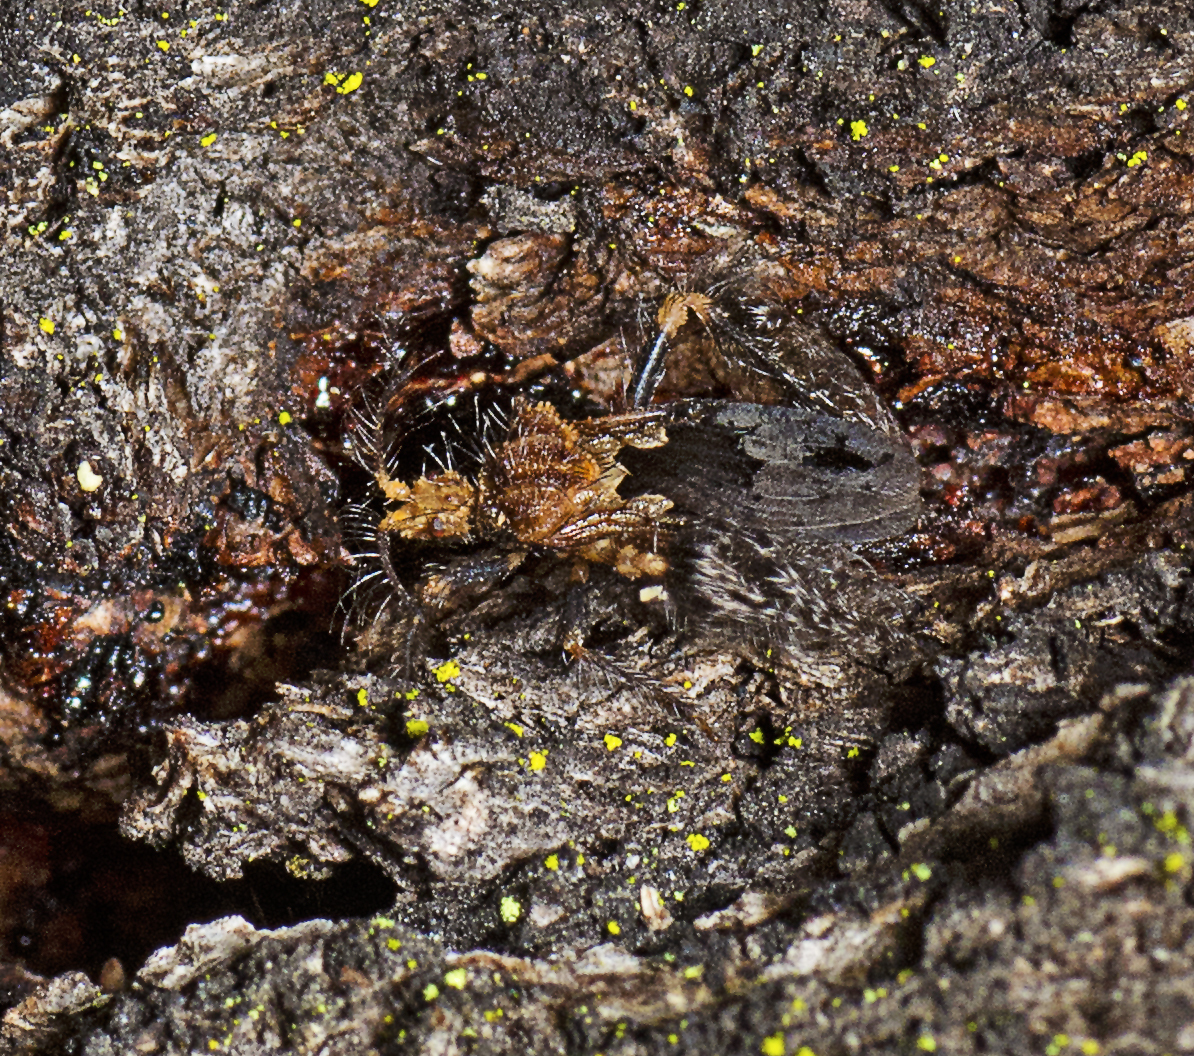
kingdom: Animalia
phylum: Arthropoda
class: Insecta
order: Hemiptera
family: Reduviidae
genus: Ptilocnemus
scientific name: Ptilocnemus femoralis
